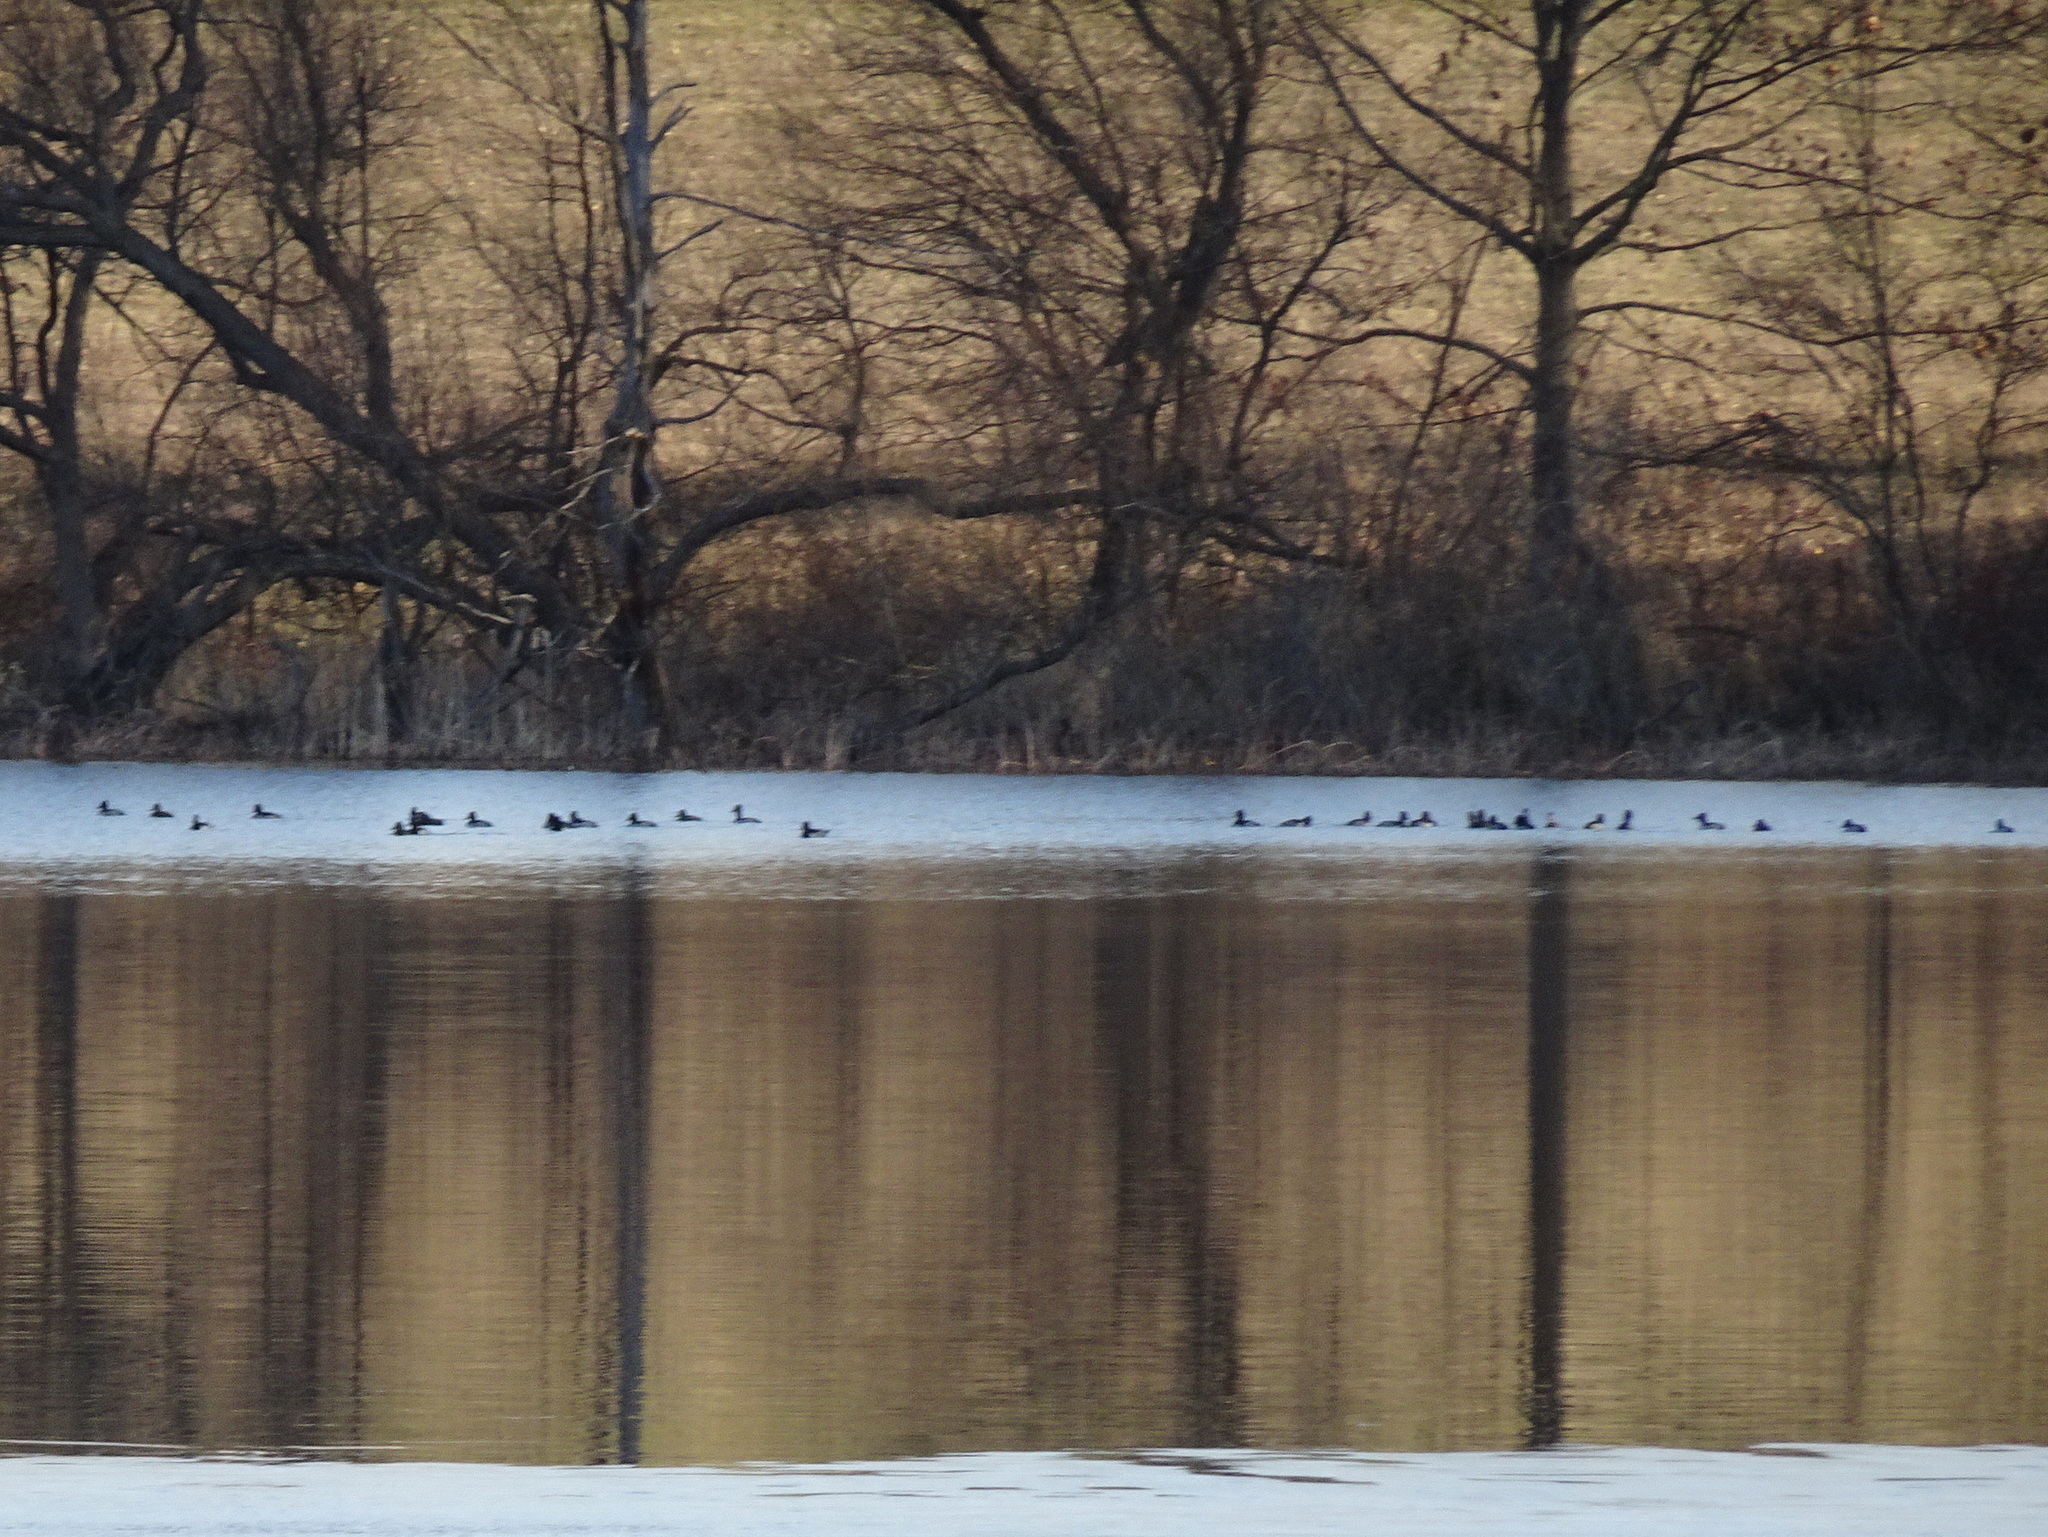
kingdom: Animalia
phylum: Chordata
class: Aves
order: Anseriformes
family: Anatidae
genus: Aythya
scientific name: Aythya collaris
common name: Ring-necked duck
